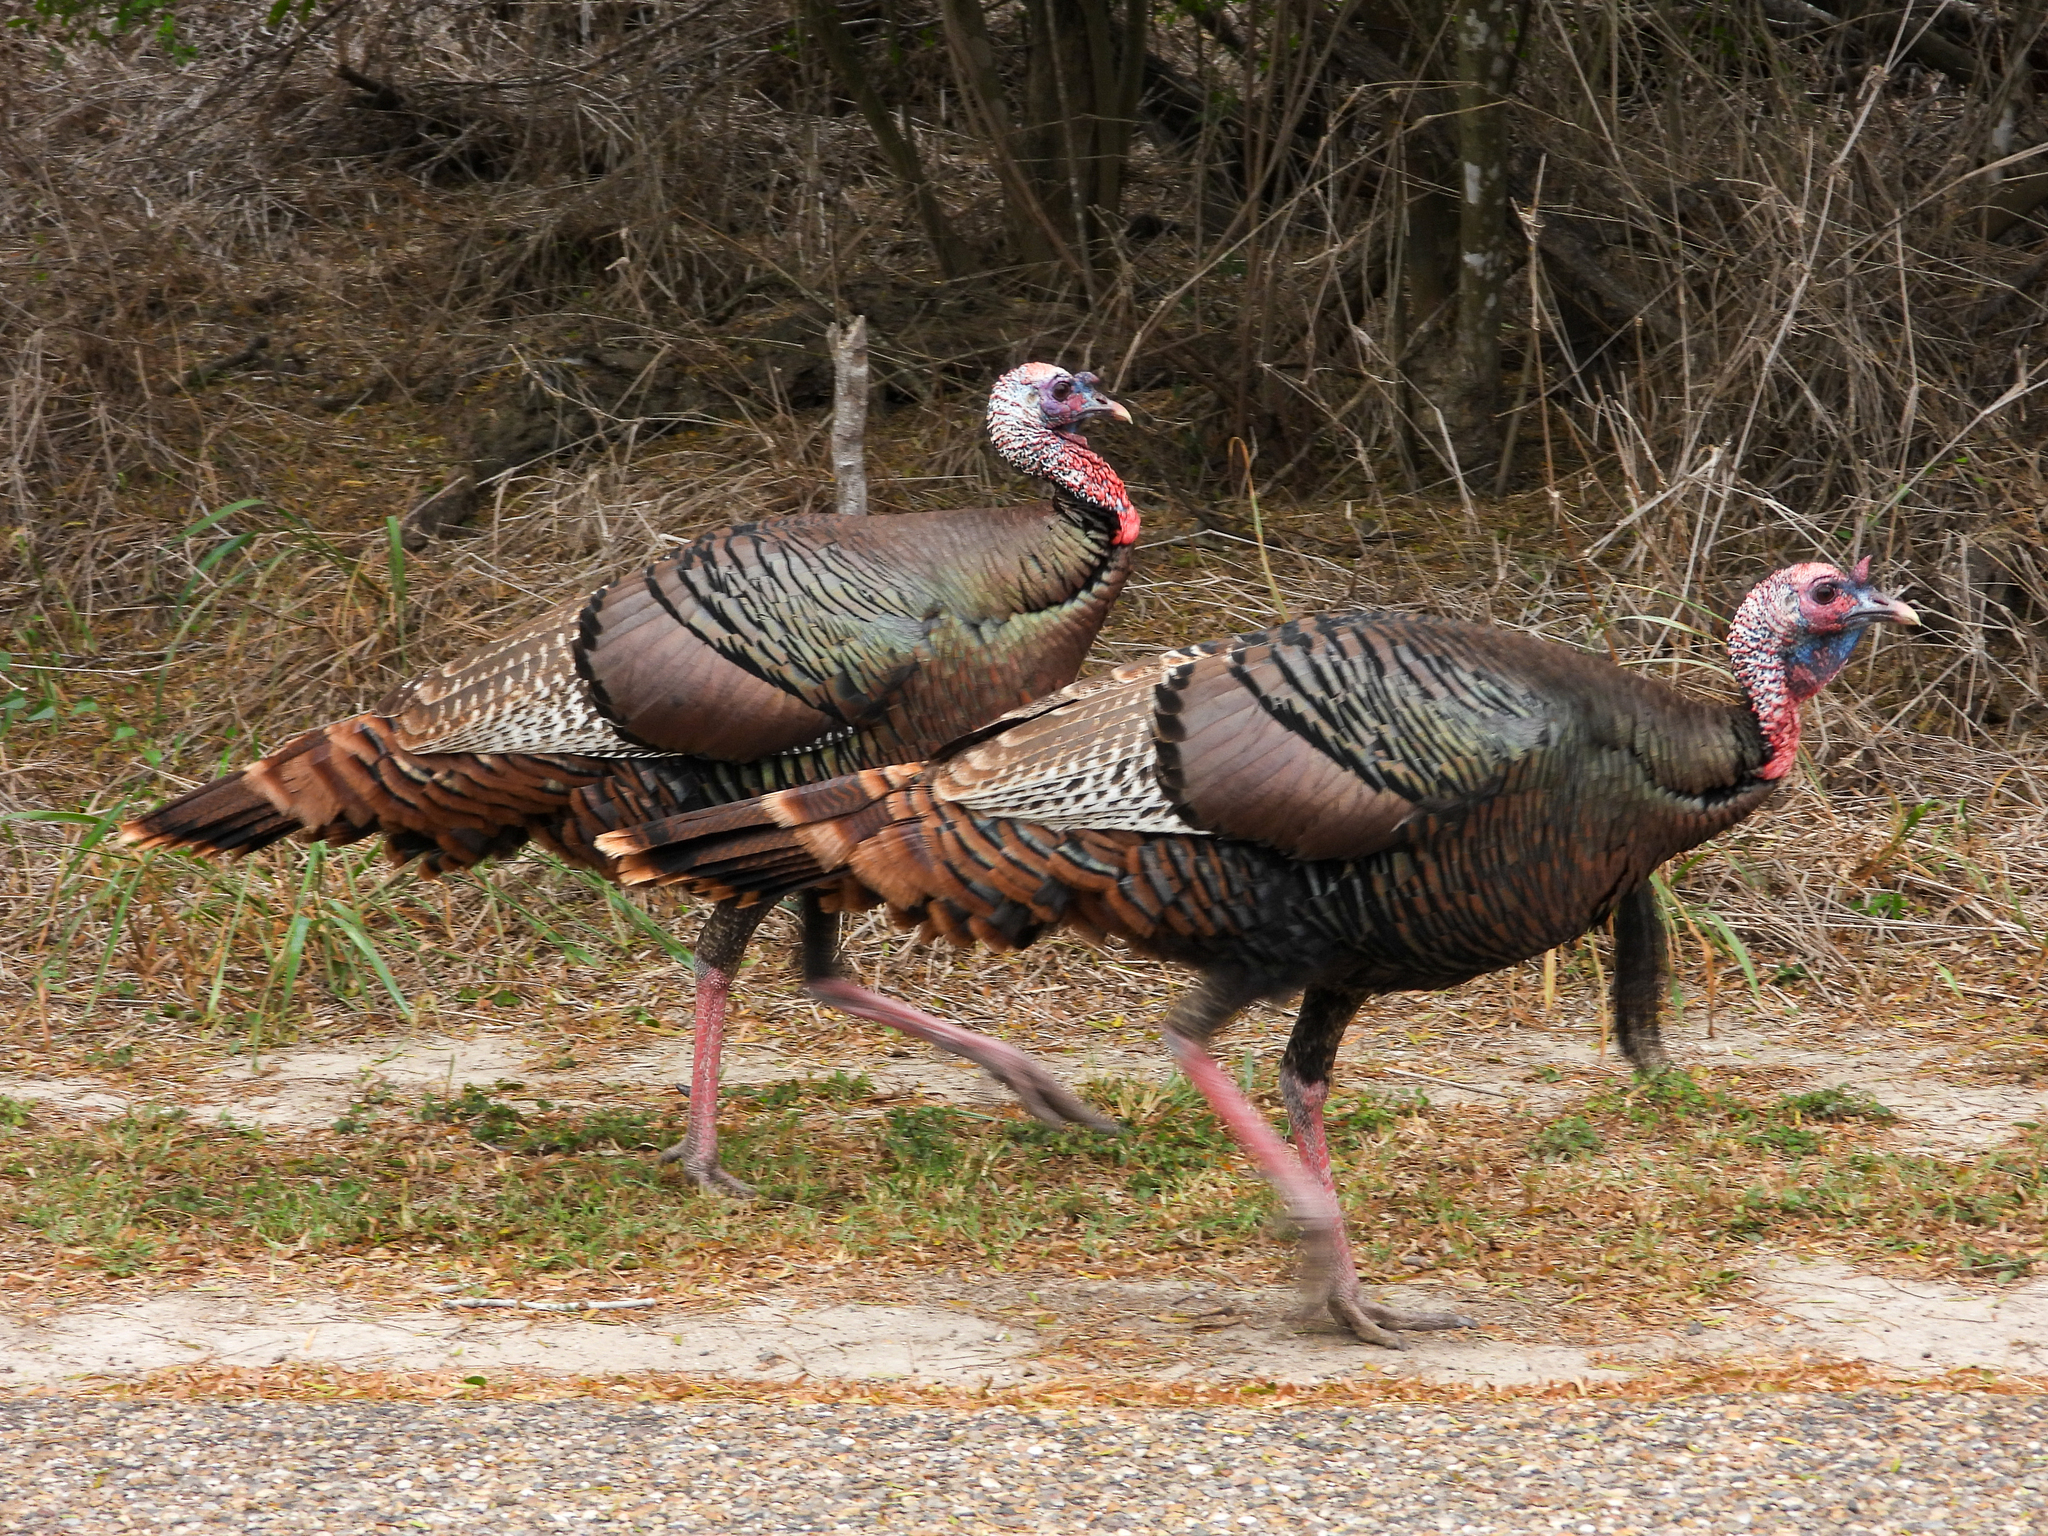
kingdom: Animalia
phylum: Chordata
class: Aves
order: Galliformes
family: Phasianidae
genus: Meleagris
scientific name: Meleagris gallopavo
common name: Wild turkey
